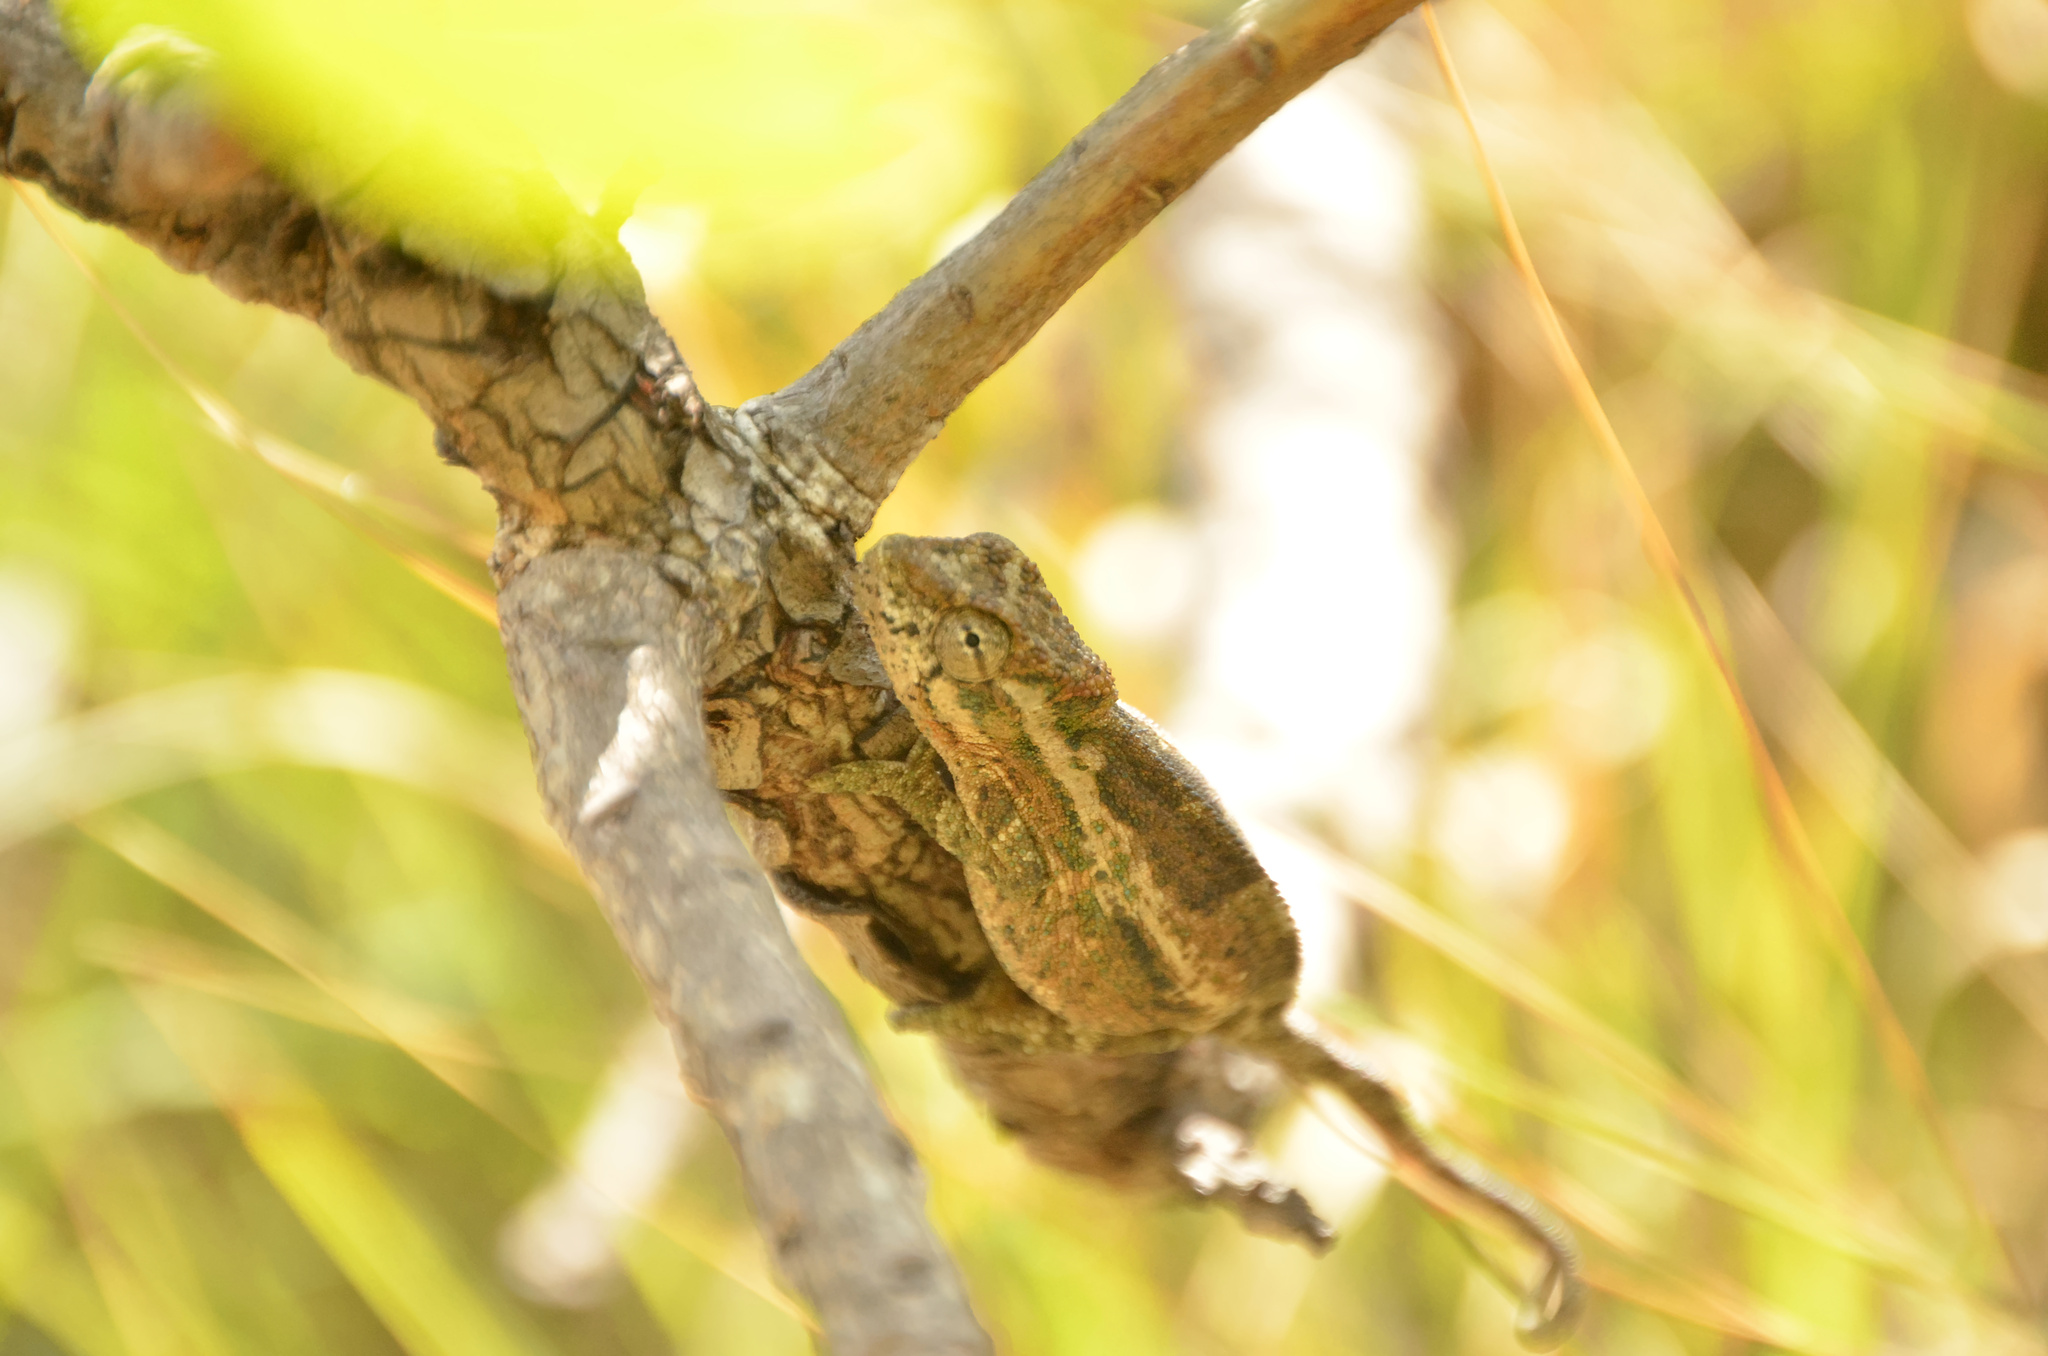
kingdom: Animalia
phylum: Chordata
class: Squamata
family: Chamaeleonidae
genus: Bradypodion
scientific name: Bradypodion dracomontanum
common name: Drakensberg dwarf chameleon
